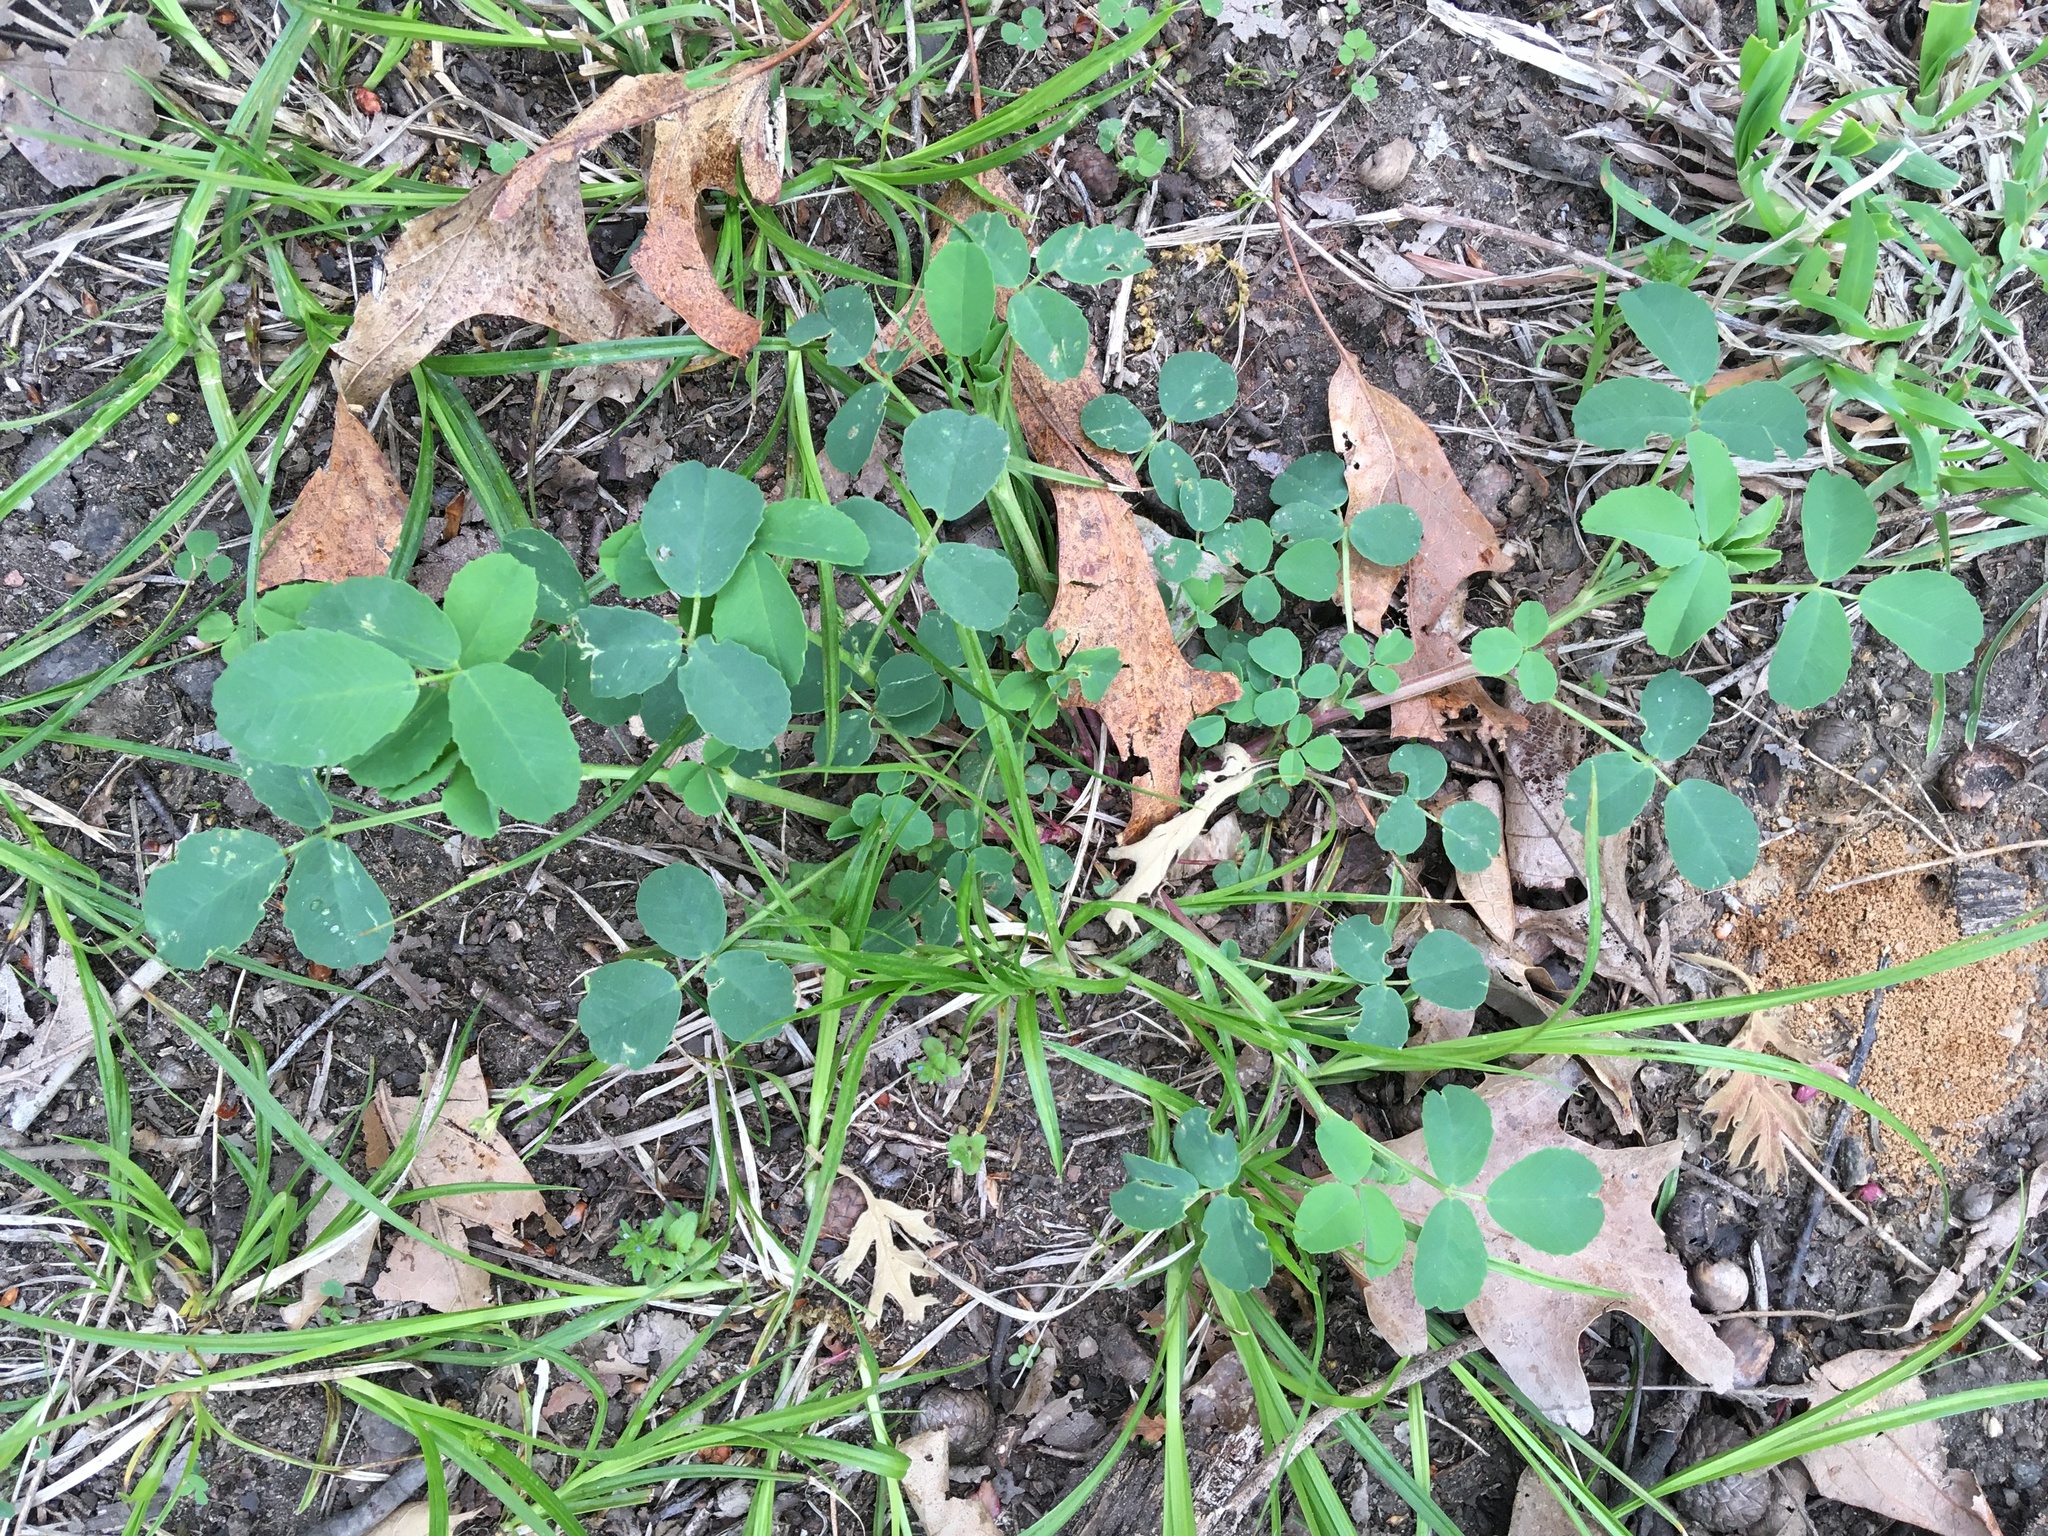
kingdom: Plantae
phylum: Tracheophyta
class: Magnoliopsida
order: Fabales
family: Fabaceae
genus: Melilotus
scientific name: Melilotus albus
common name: White melilot
